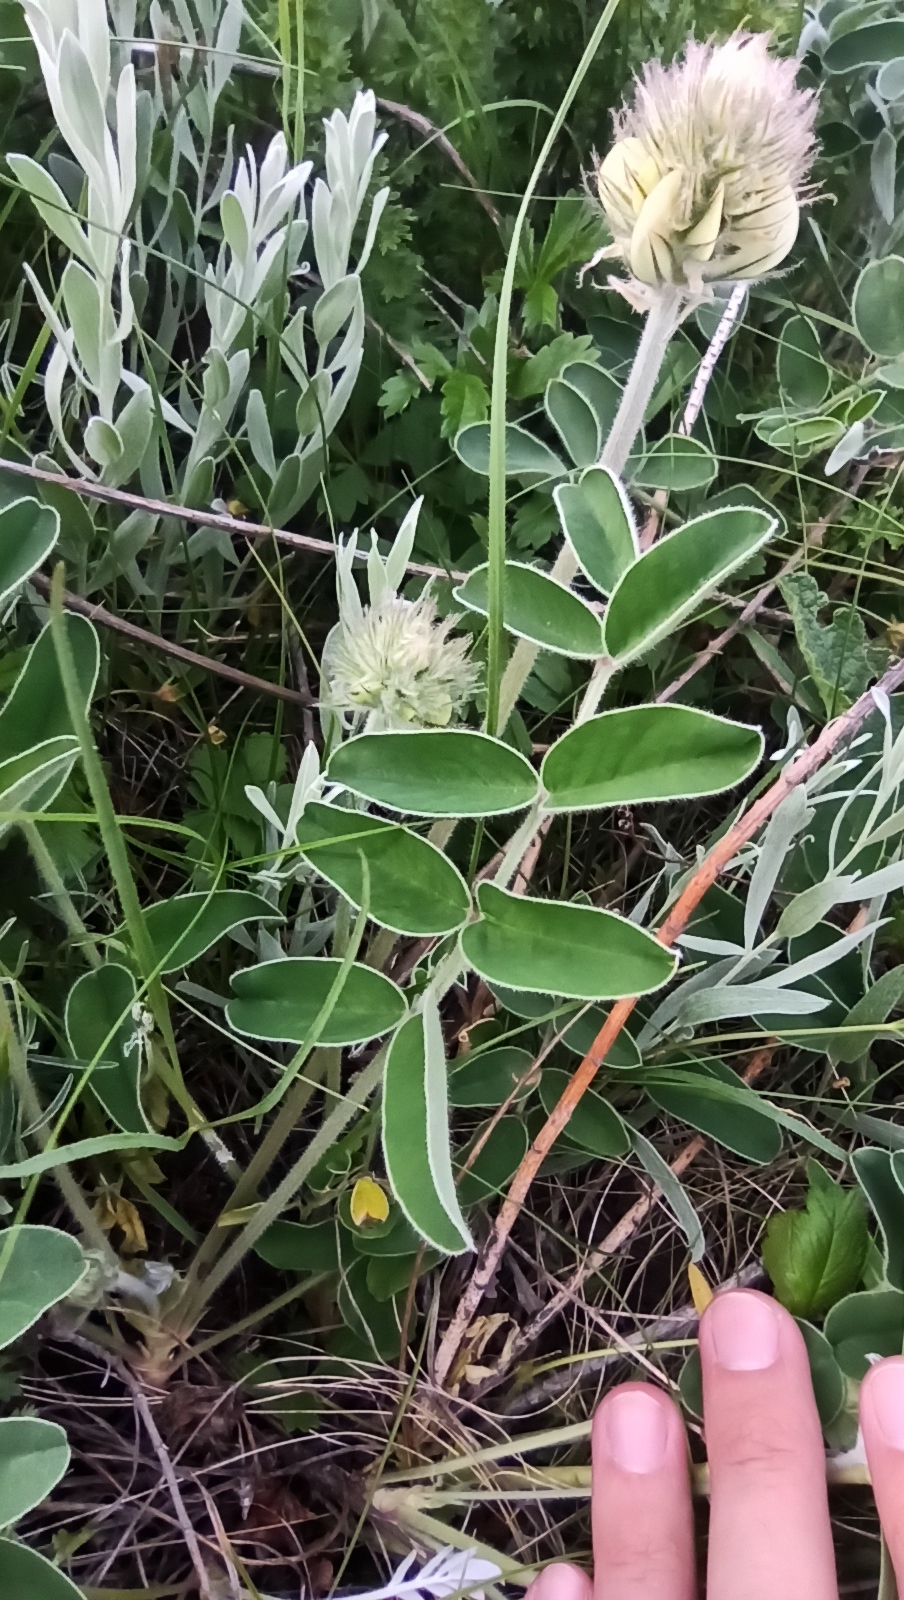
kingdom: Plantae
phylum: Tracheophyta
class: Magnoliopsida
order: Fabales
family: Fabaceae
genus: Hedysarum
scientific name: Hedysarum grandiflorum
